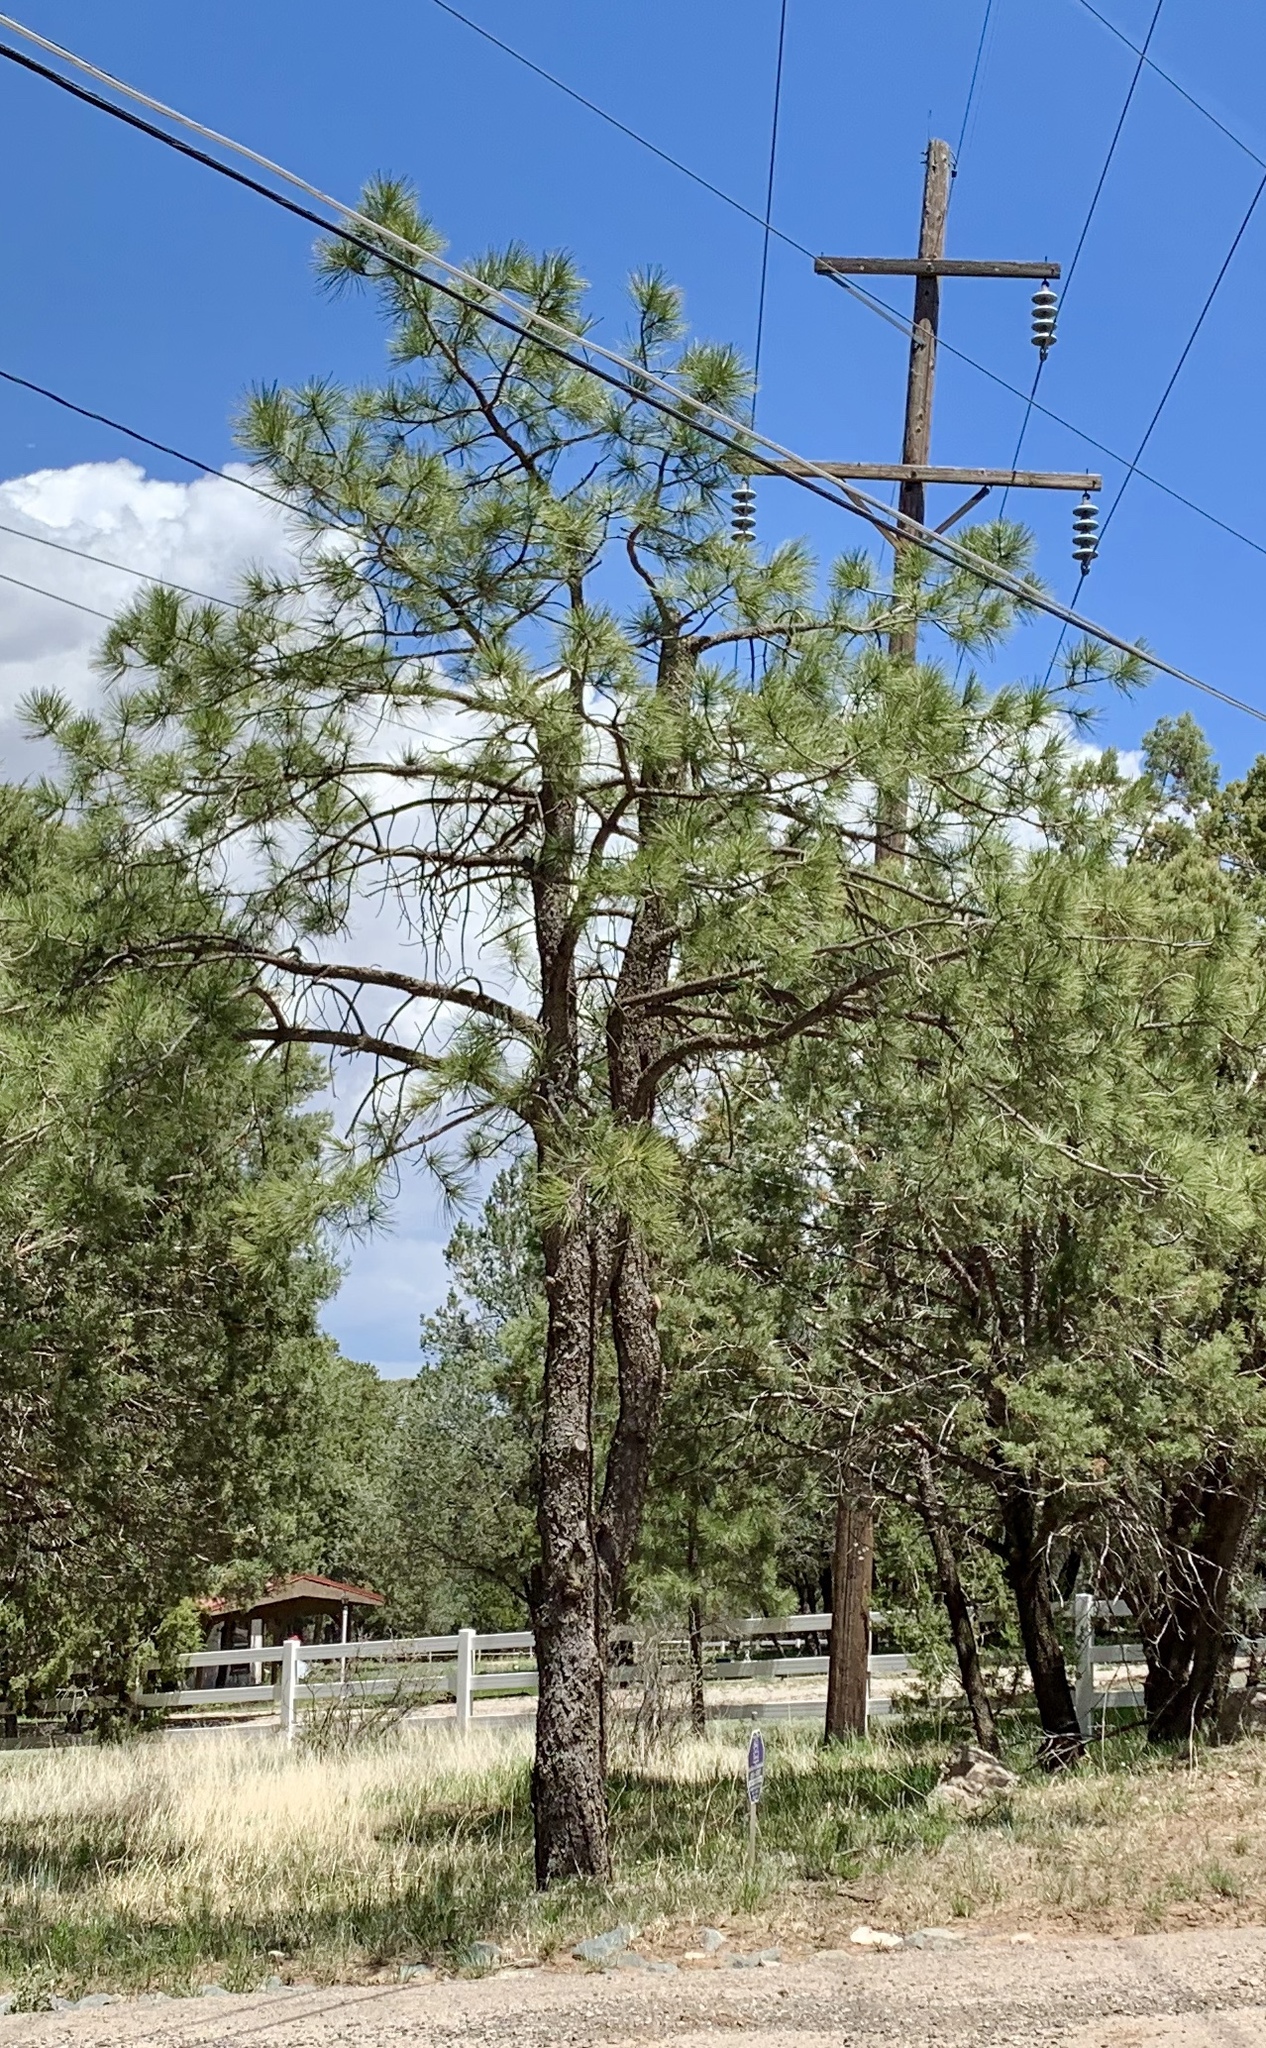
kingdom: Plantae
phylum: Tracheophyta
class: Pinopsida
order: Pinales
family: Pinaceae
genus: Pinus
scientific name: Pinus ponderosa
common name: Western yellow-pine
